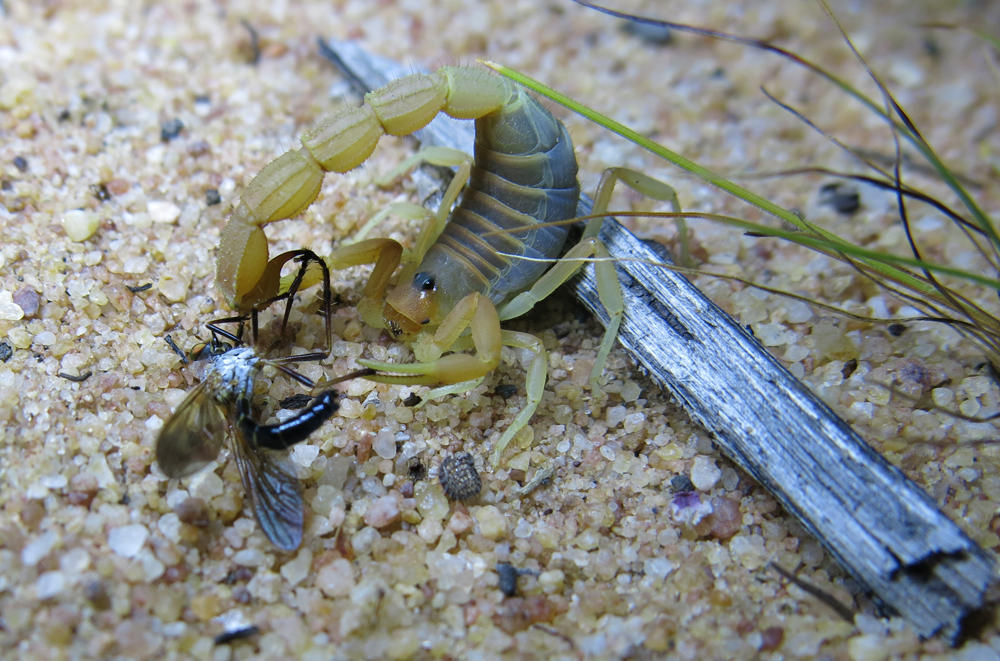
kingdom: Animalia
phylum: Arthropoda
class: Arachnida
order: Scorpiones
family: Buthidae
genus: Parabuthus
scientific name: Parabuthus mossambicensis
